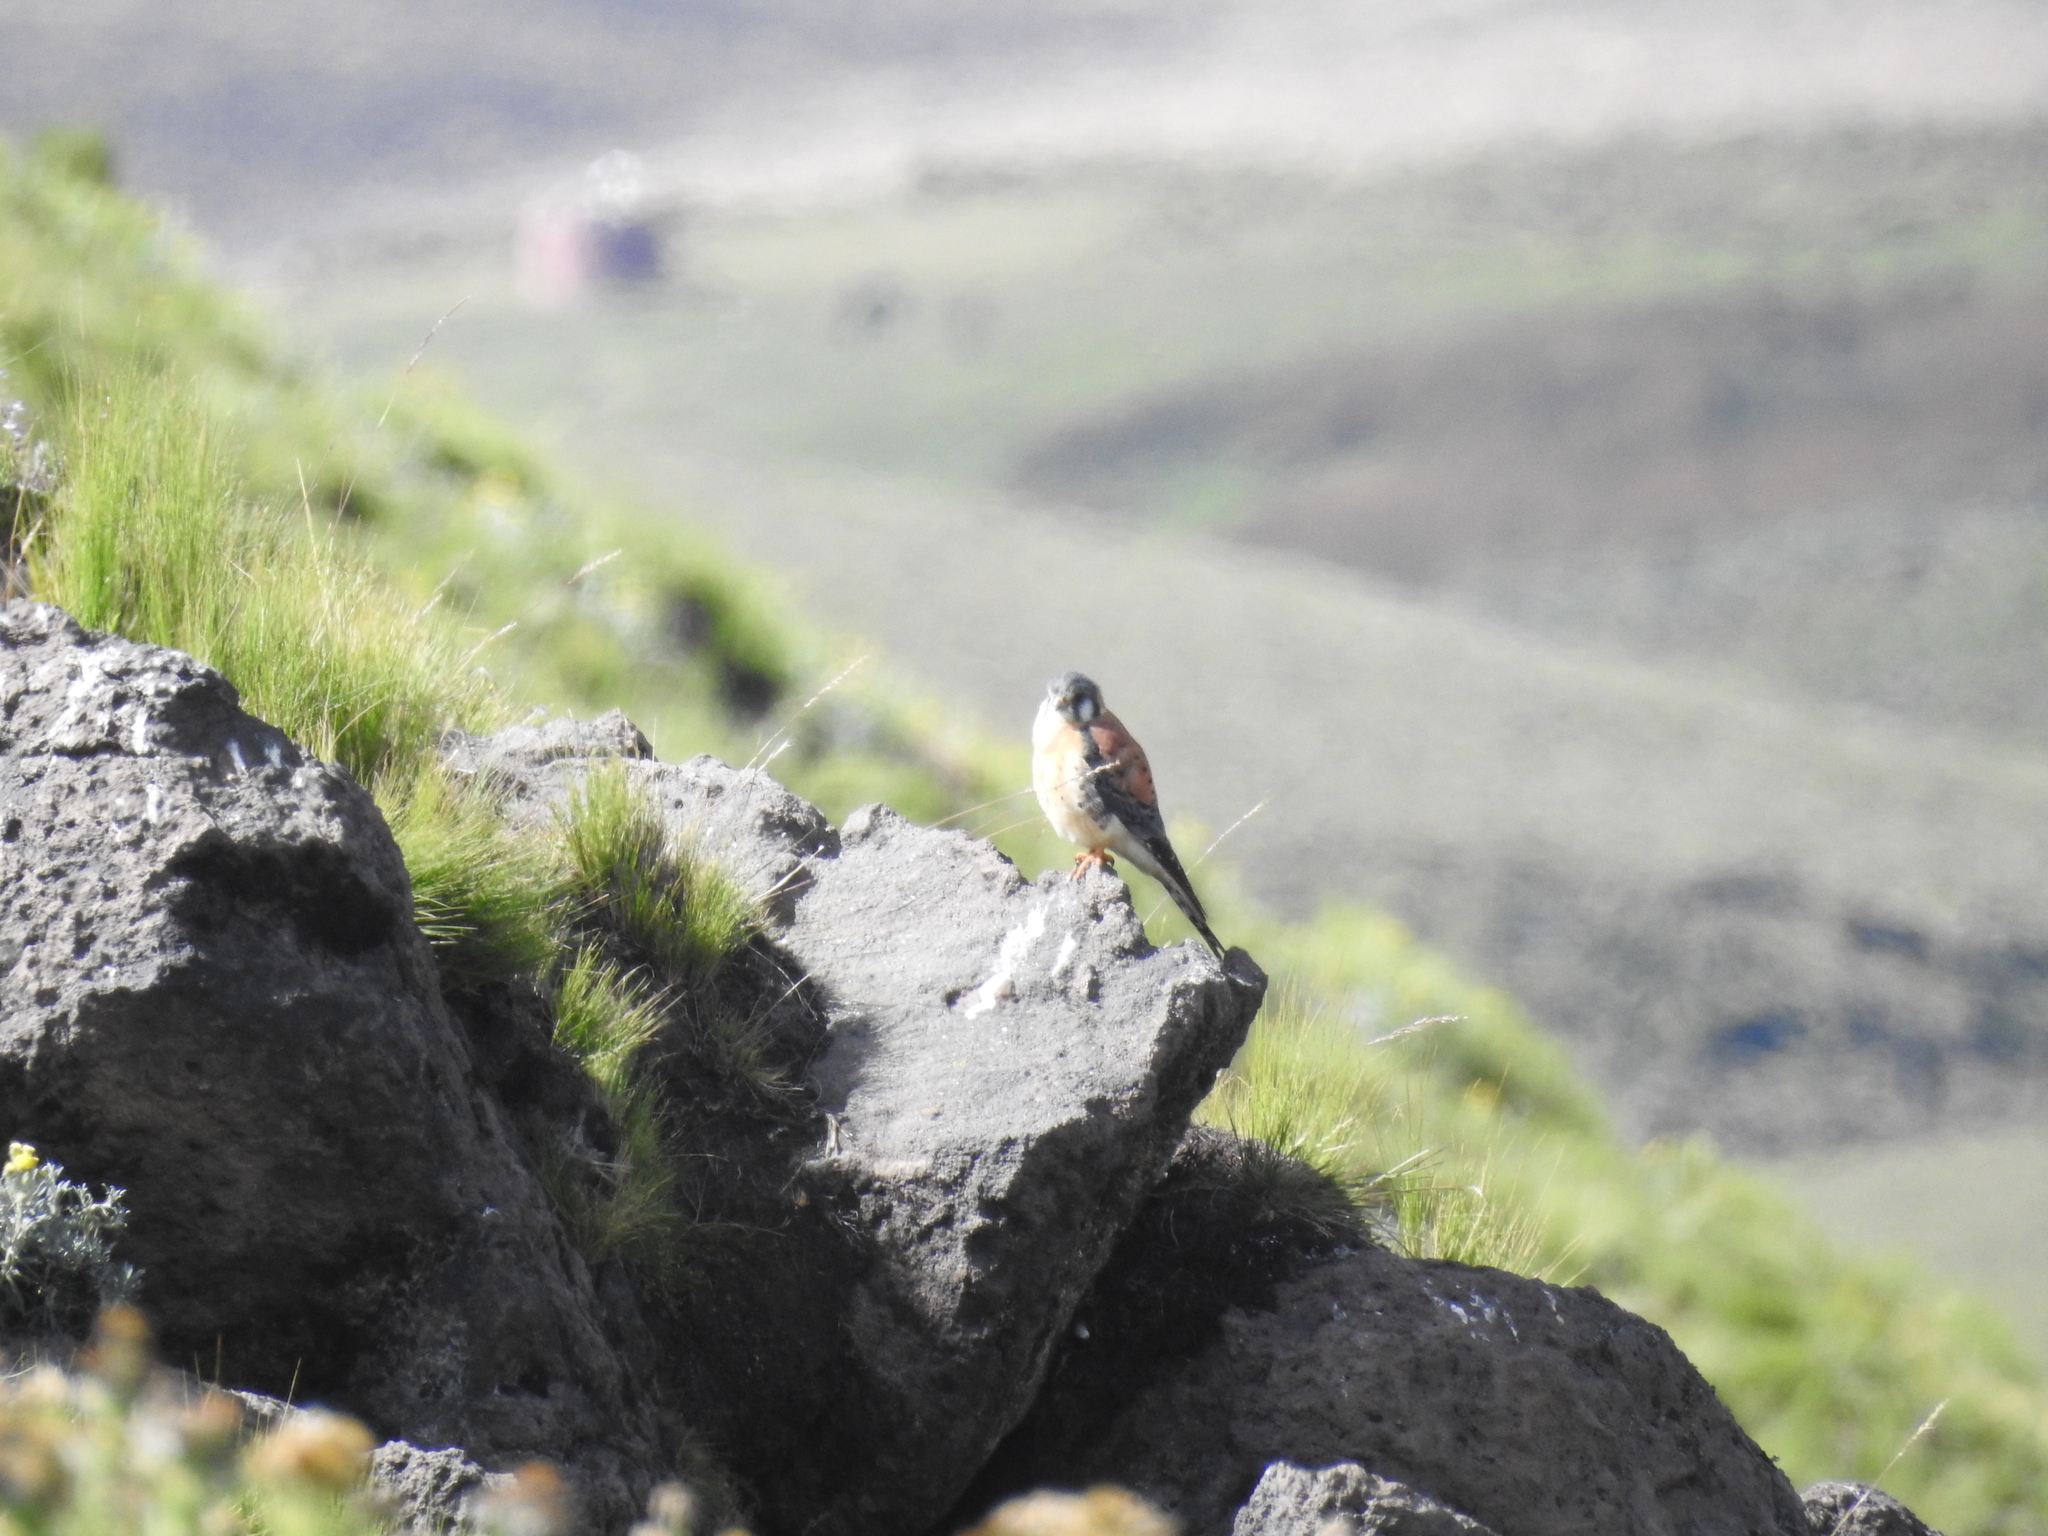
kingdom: Animalia
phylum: Chordata
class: Aves
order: Falconiformes
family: Falconidae
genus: Falco
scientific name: Falco sparverius
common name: American kestrel
